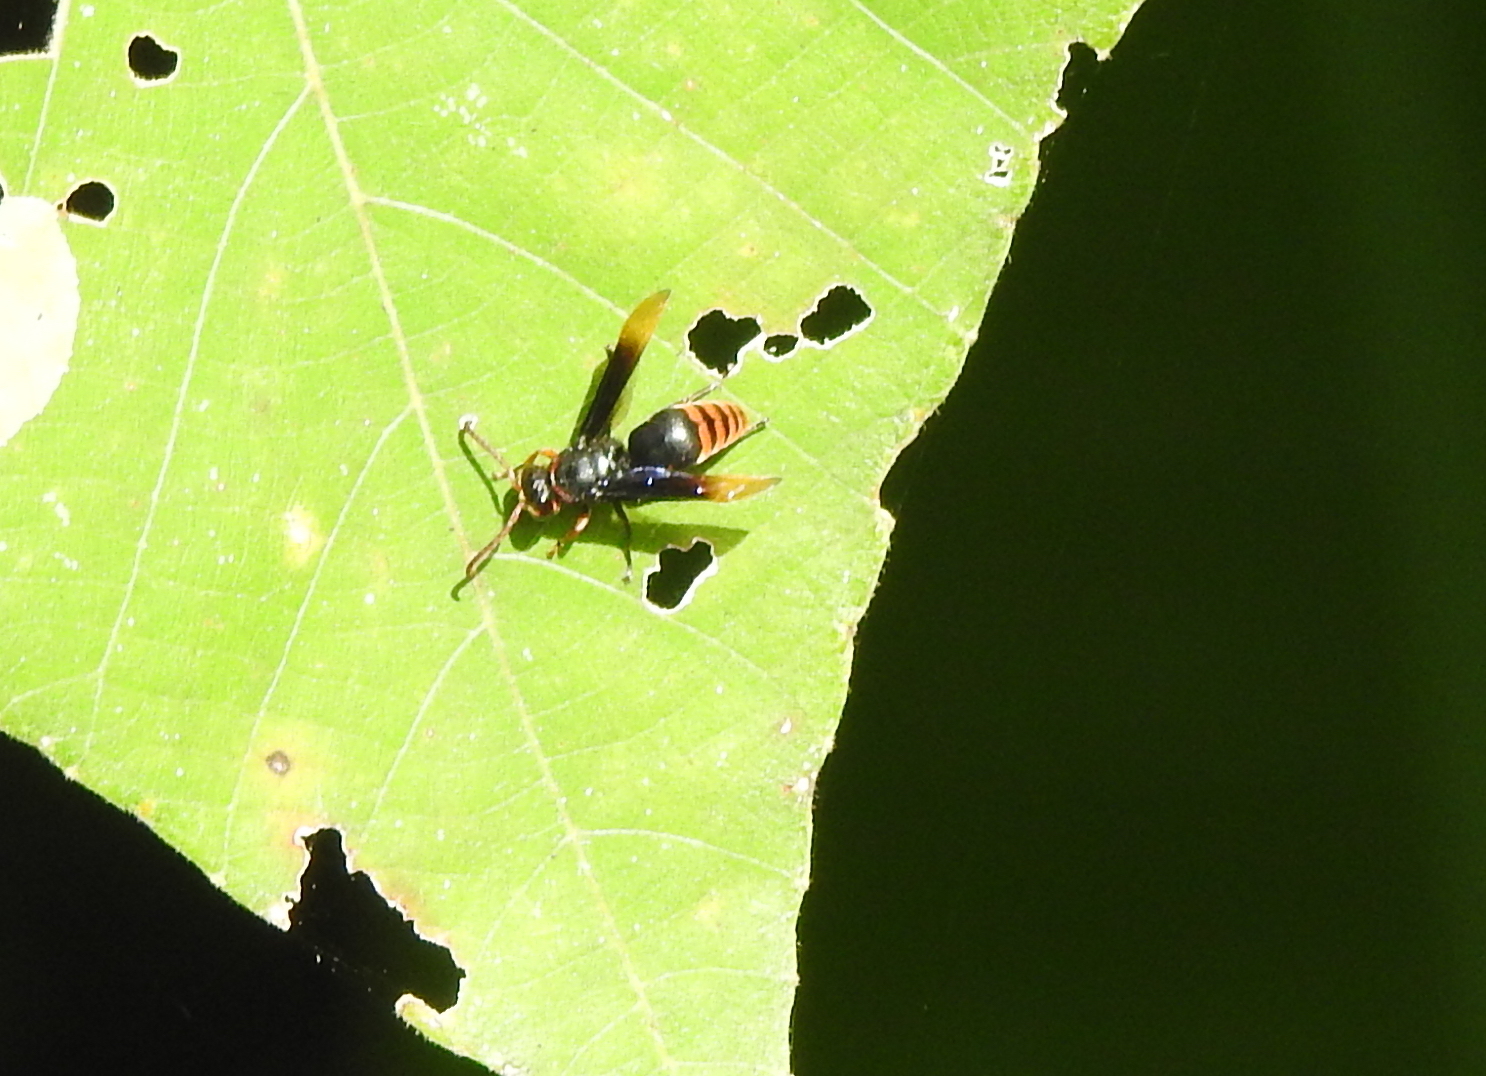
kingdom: Animalia
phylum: Arthropoda
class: Insecta
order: Hymenoptera
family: Eumenidae
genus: Rhynchium
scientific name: Rhynchium haemorrhoidale
